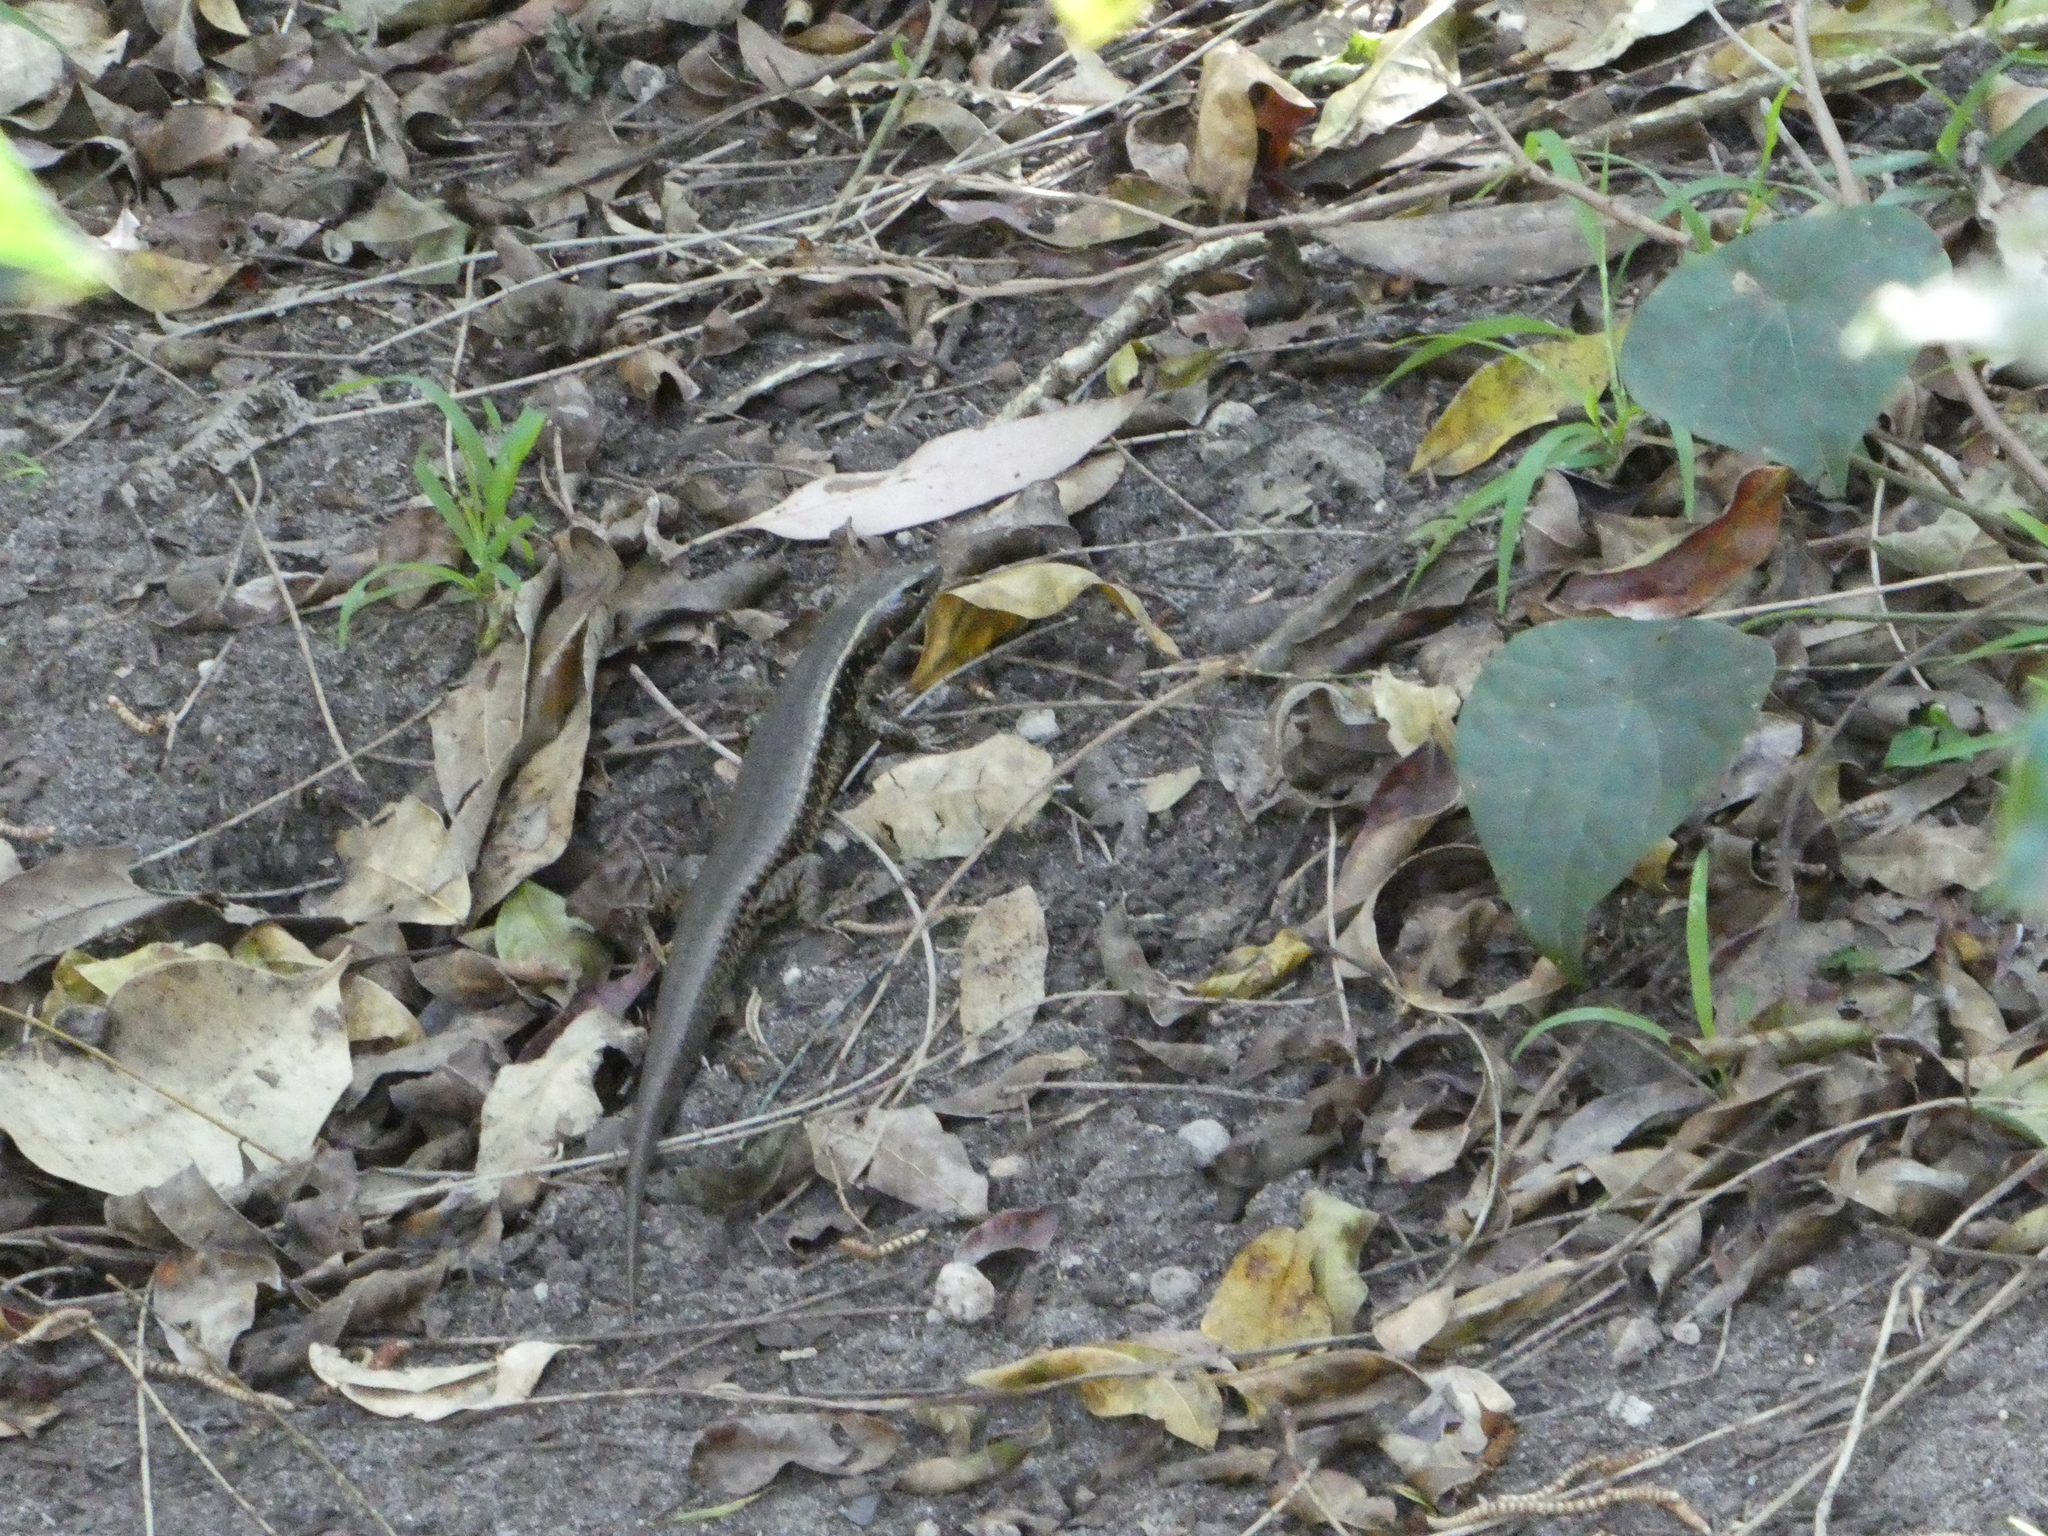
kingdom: Animalia
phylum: Chordata
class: Squamata
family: Scincidae
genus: Eulamprus
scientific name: Eulamprus quoyii
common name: Eastern water skink
